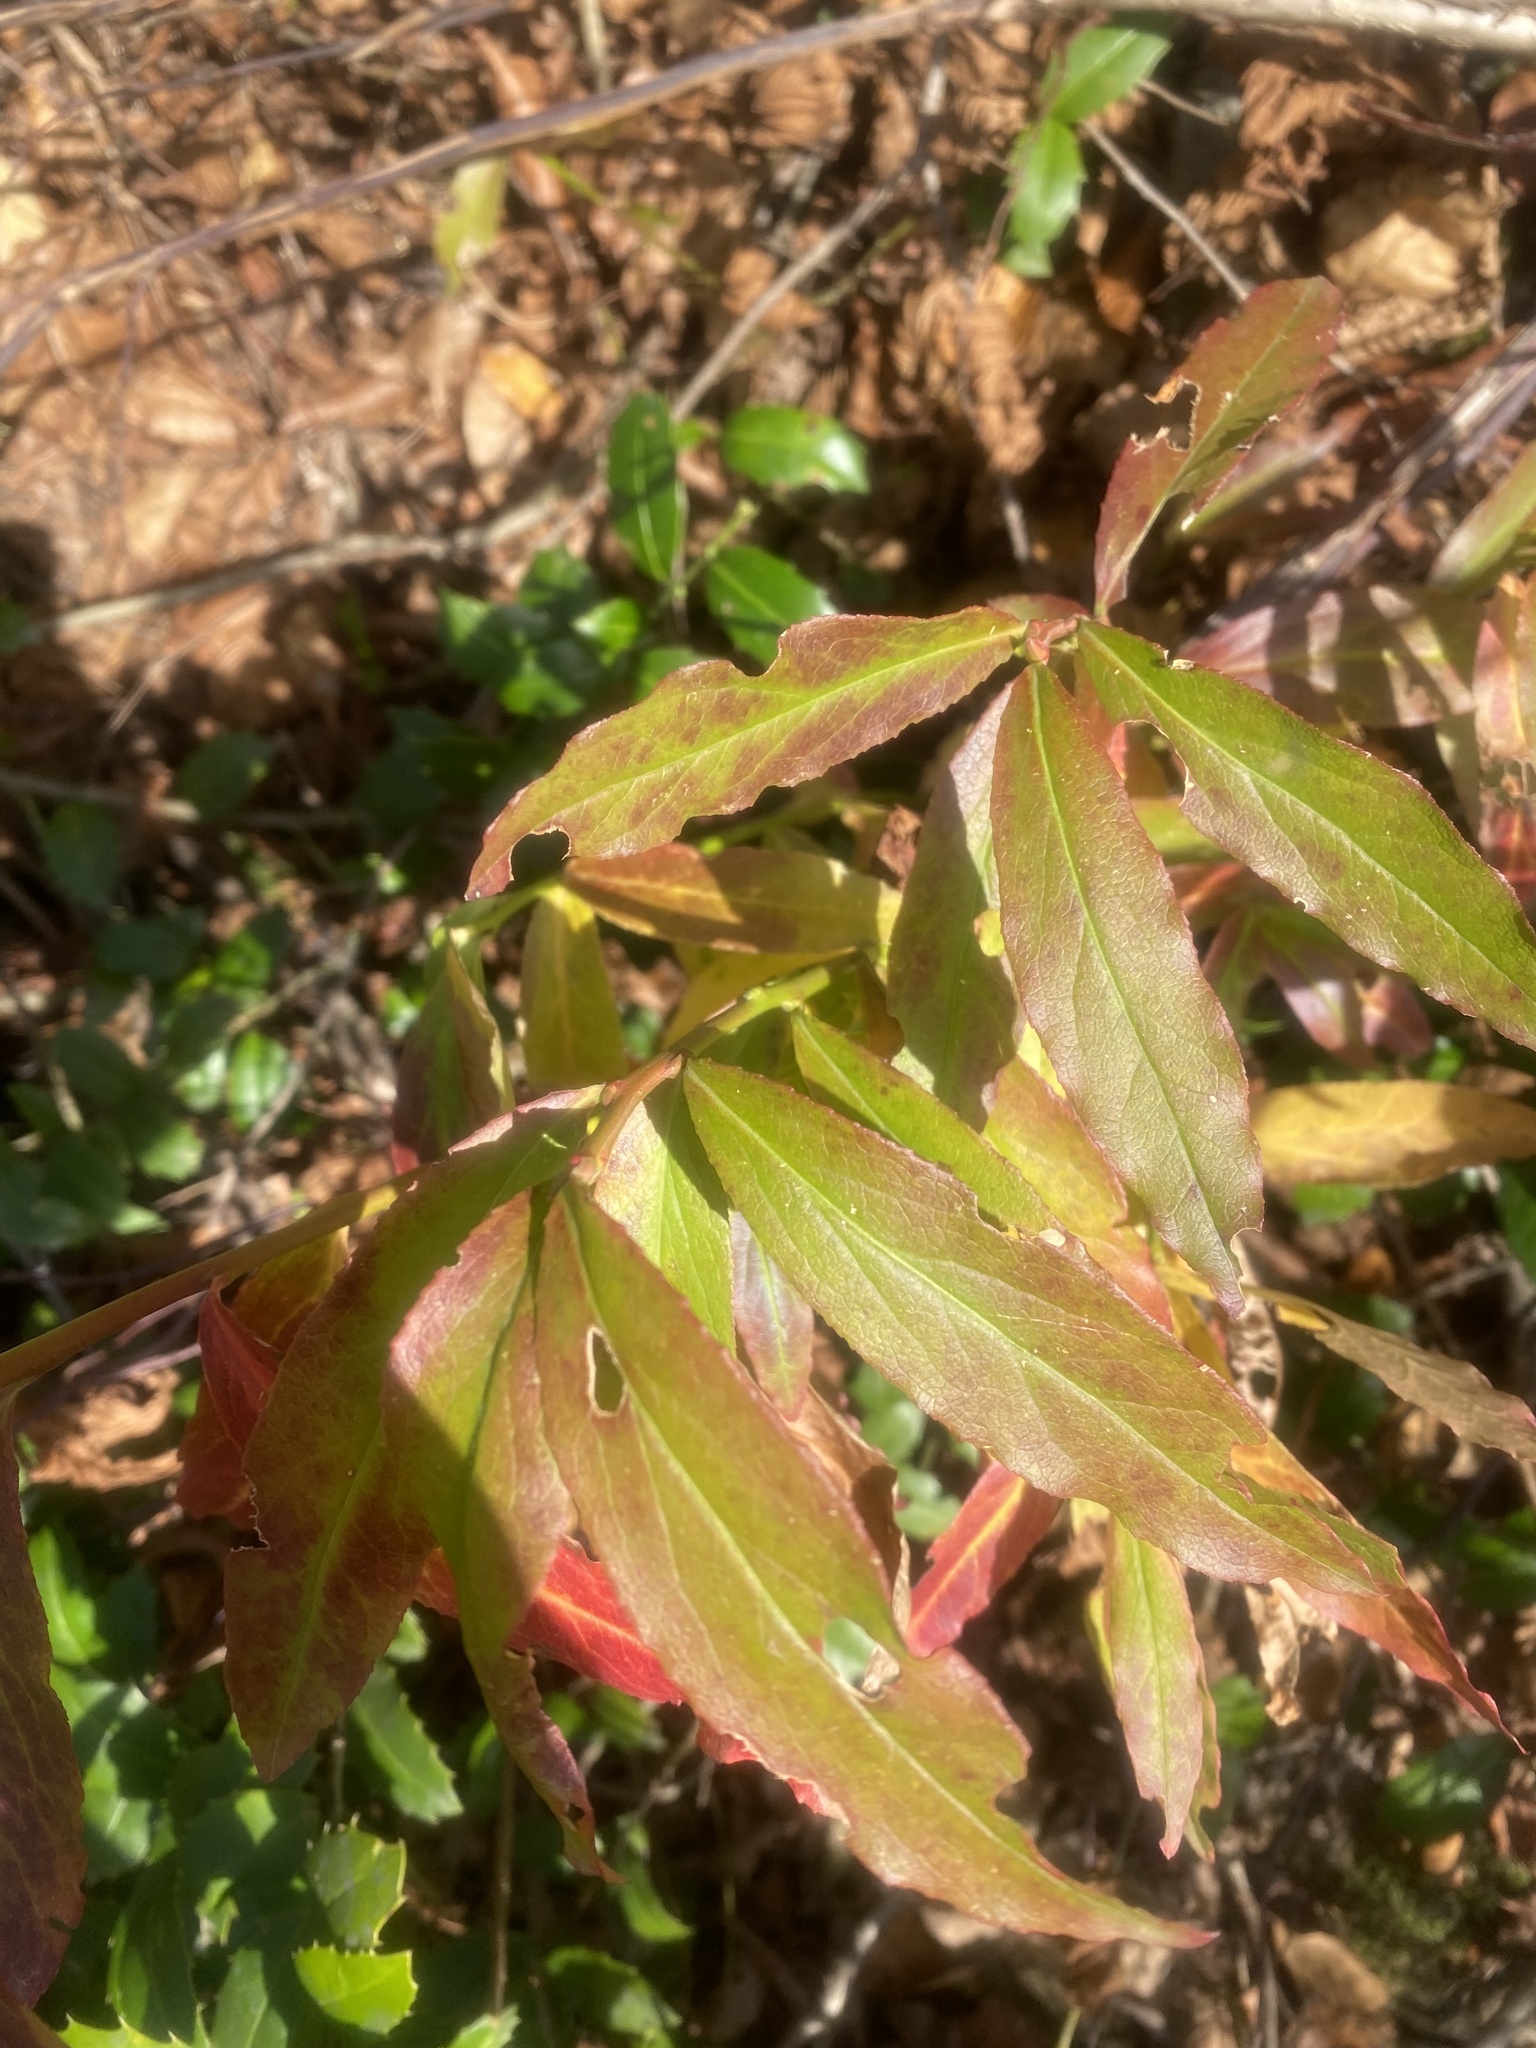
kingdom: Plantae
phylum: Tracheophyta
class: Magnoliopsida
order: Ericales
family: Ericaceae
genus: Vaccinium
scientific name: Vaccinium arctostaphylos
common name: Caucasian whortleberry
